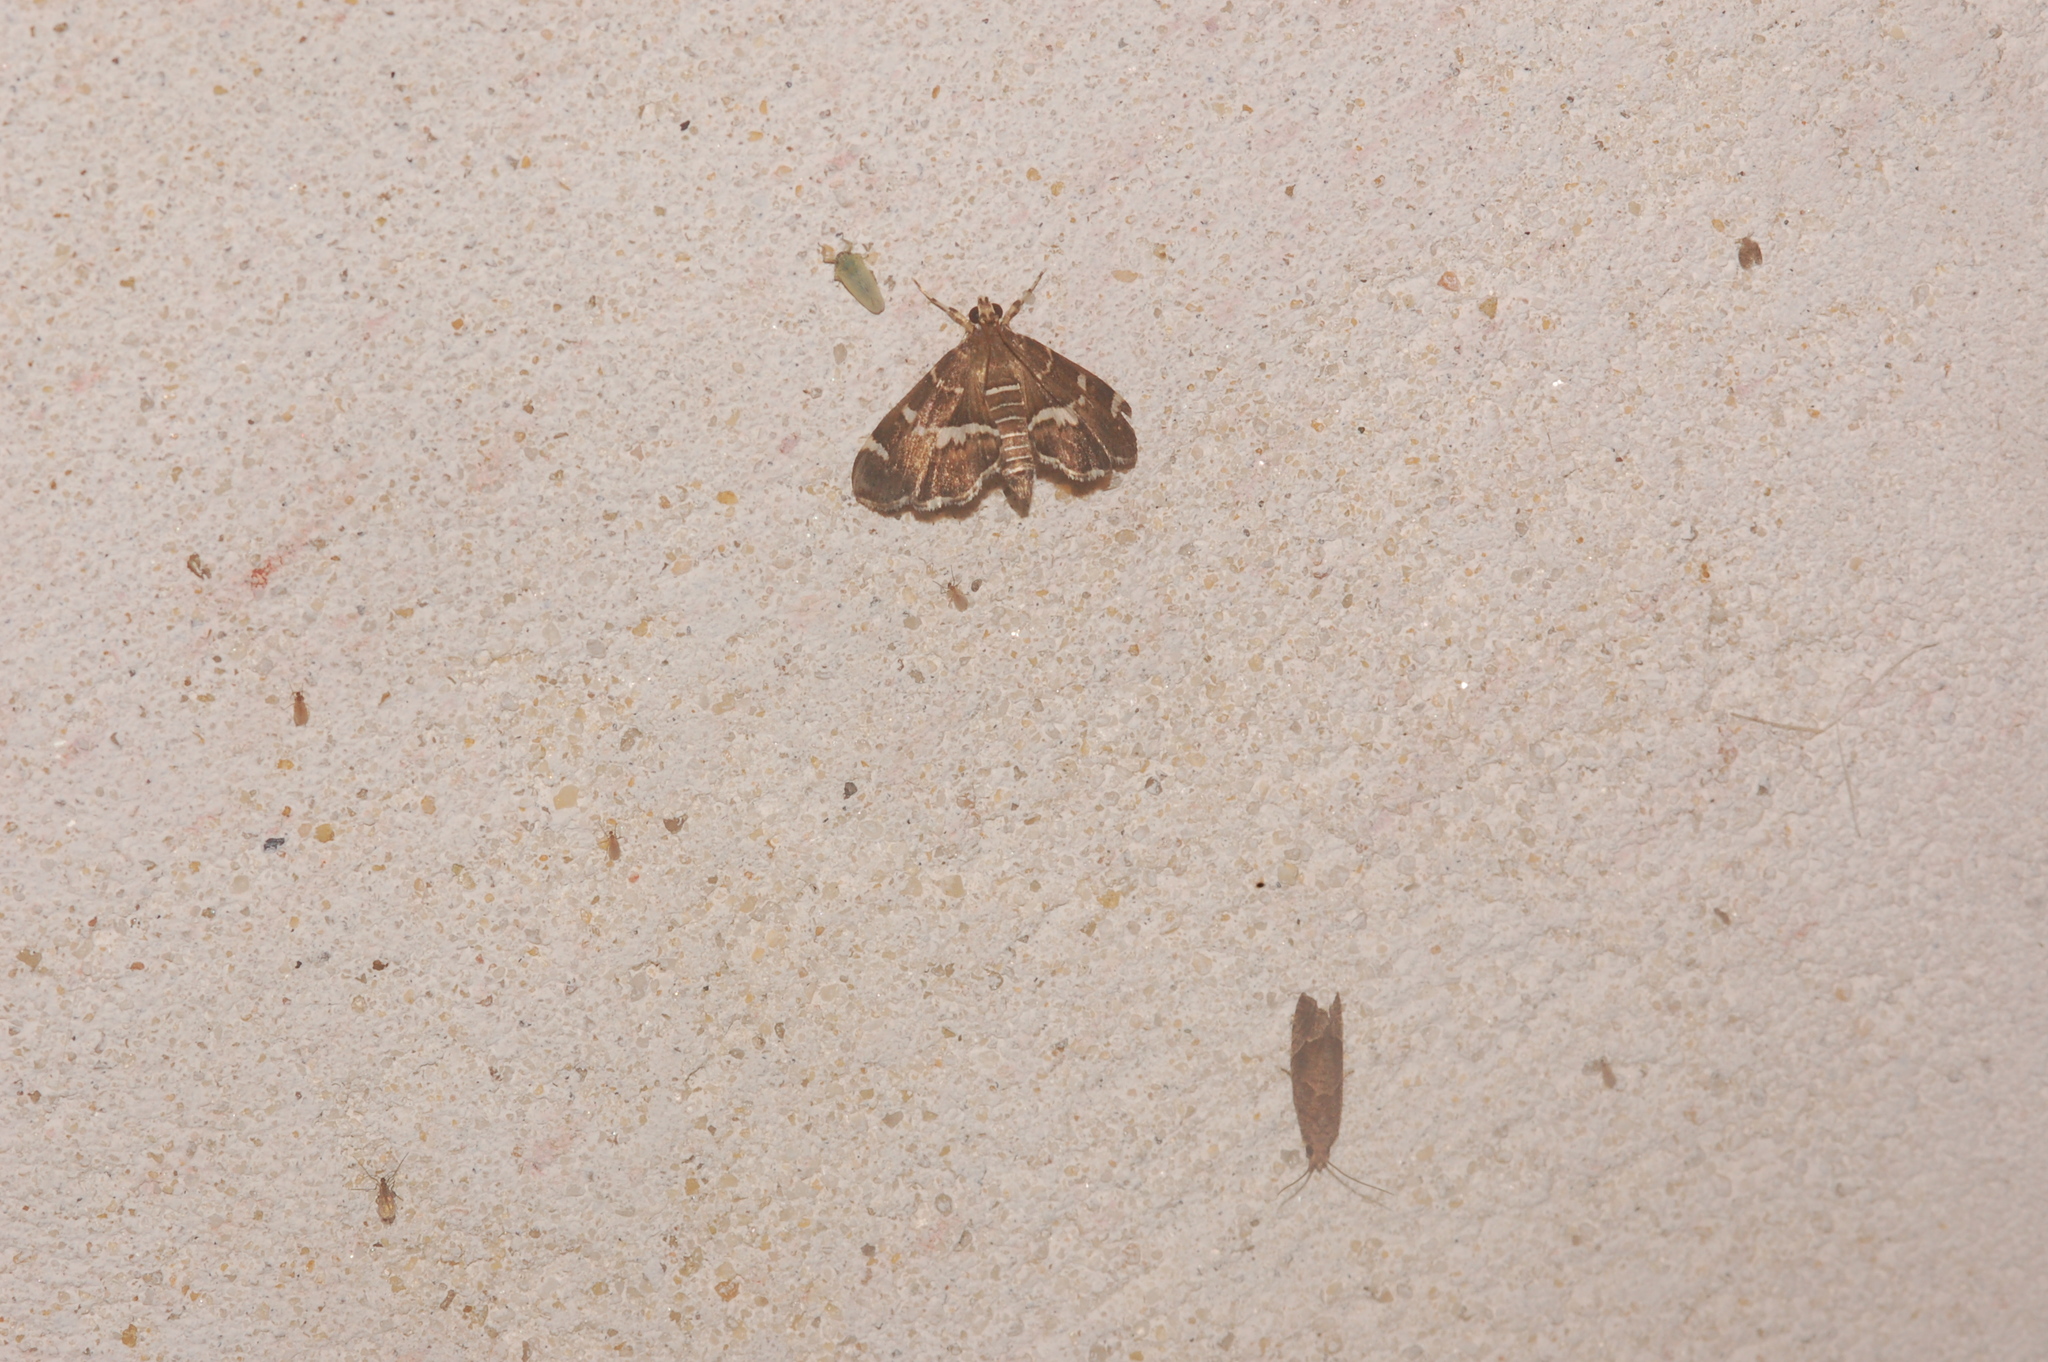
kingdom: Animalia
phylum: Arthropoda
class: Insecta
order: Lepidoptera
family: Crambidae
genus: Hymenia
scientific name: Hymenia perspectalis
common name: Spotted beet webworm
